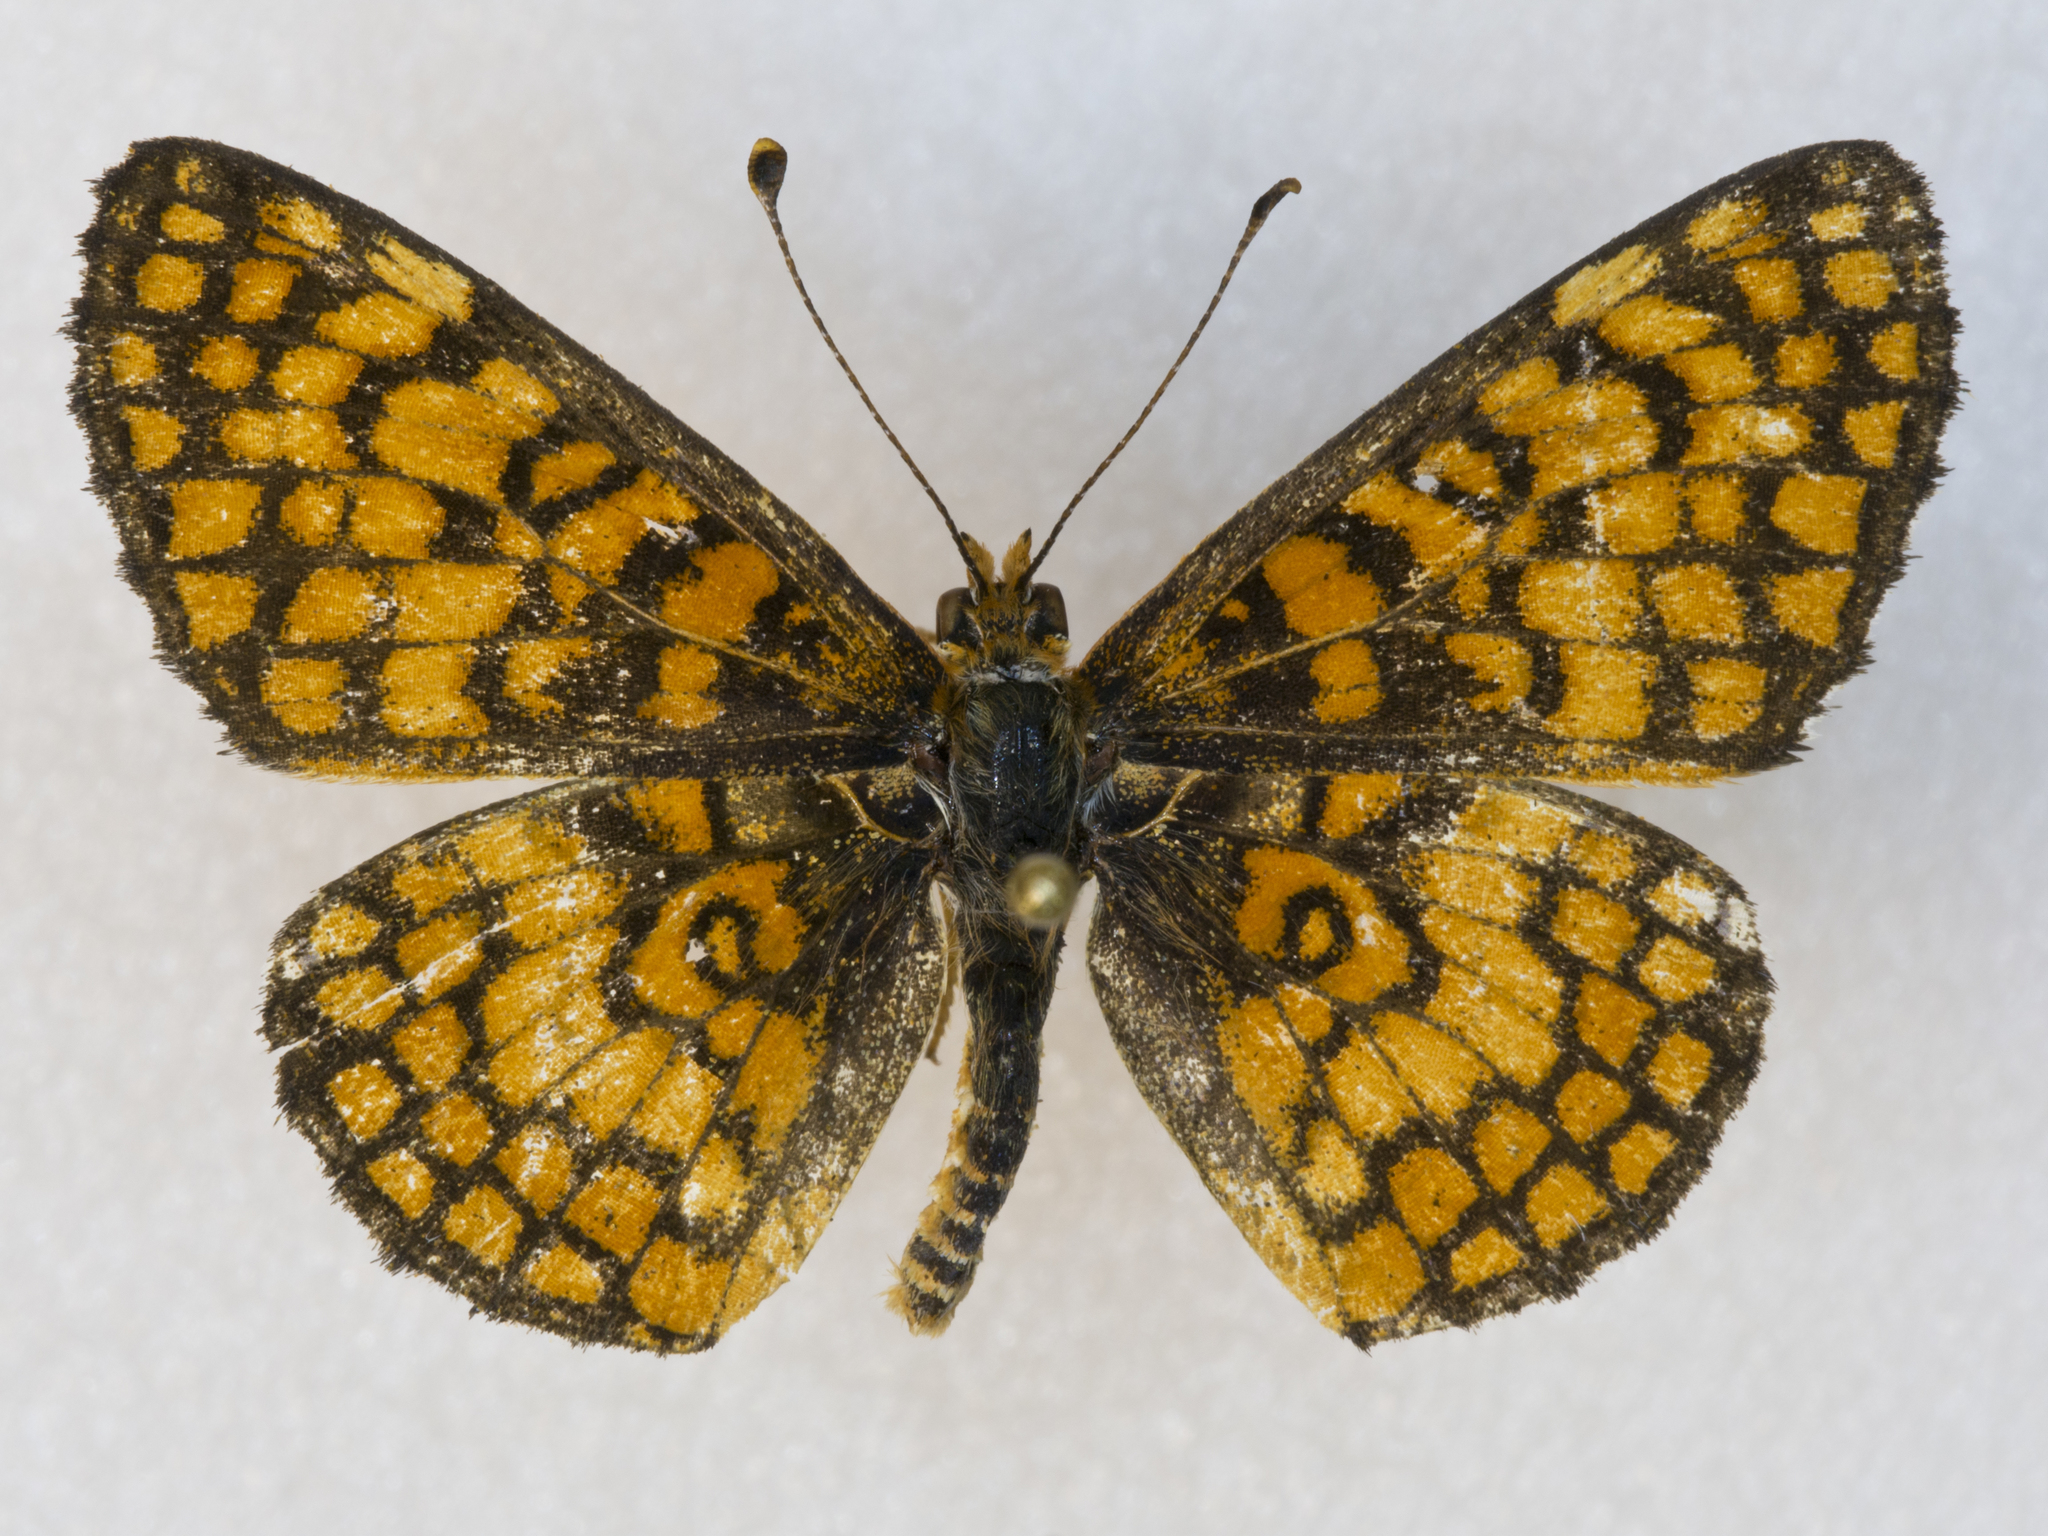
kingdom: Animalia
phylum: Arthropoda
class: Insecta
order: Lepidoptera
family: Nymphalidae
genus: Poladryas
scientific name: Poladryas minuta
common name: Dotted checkerspot
